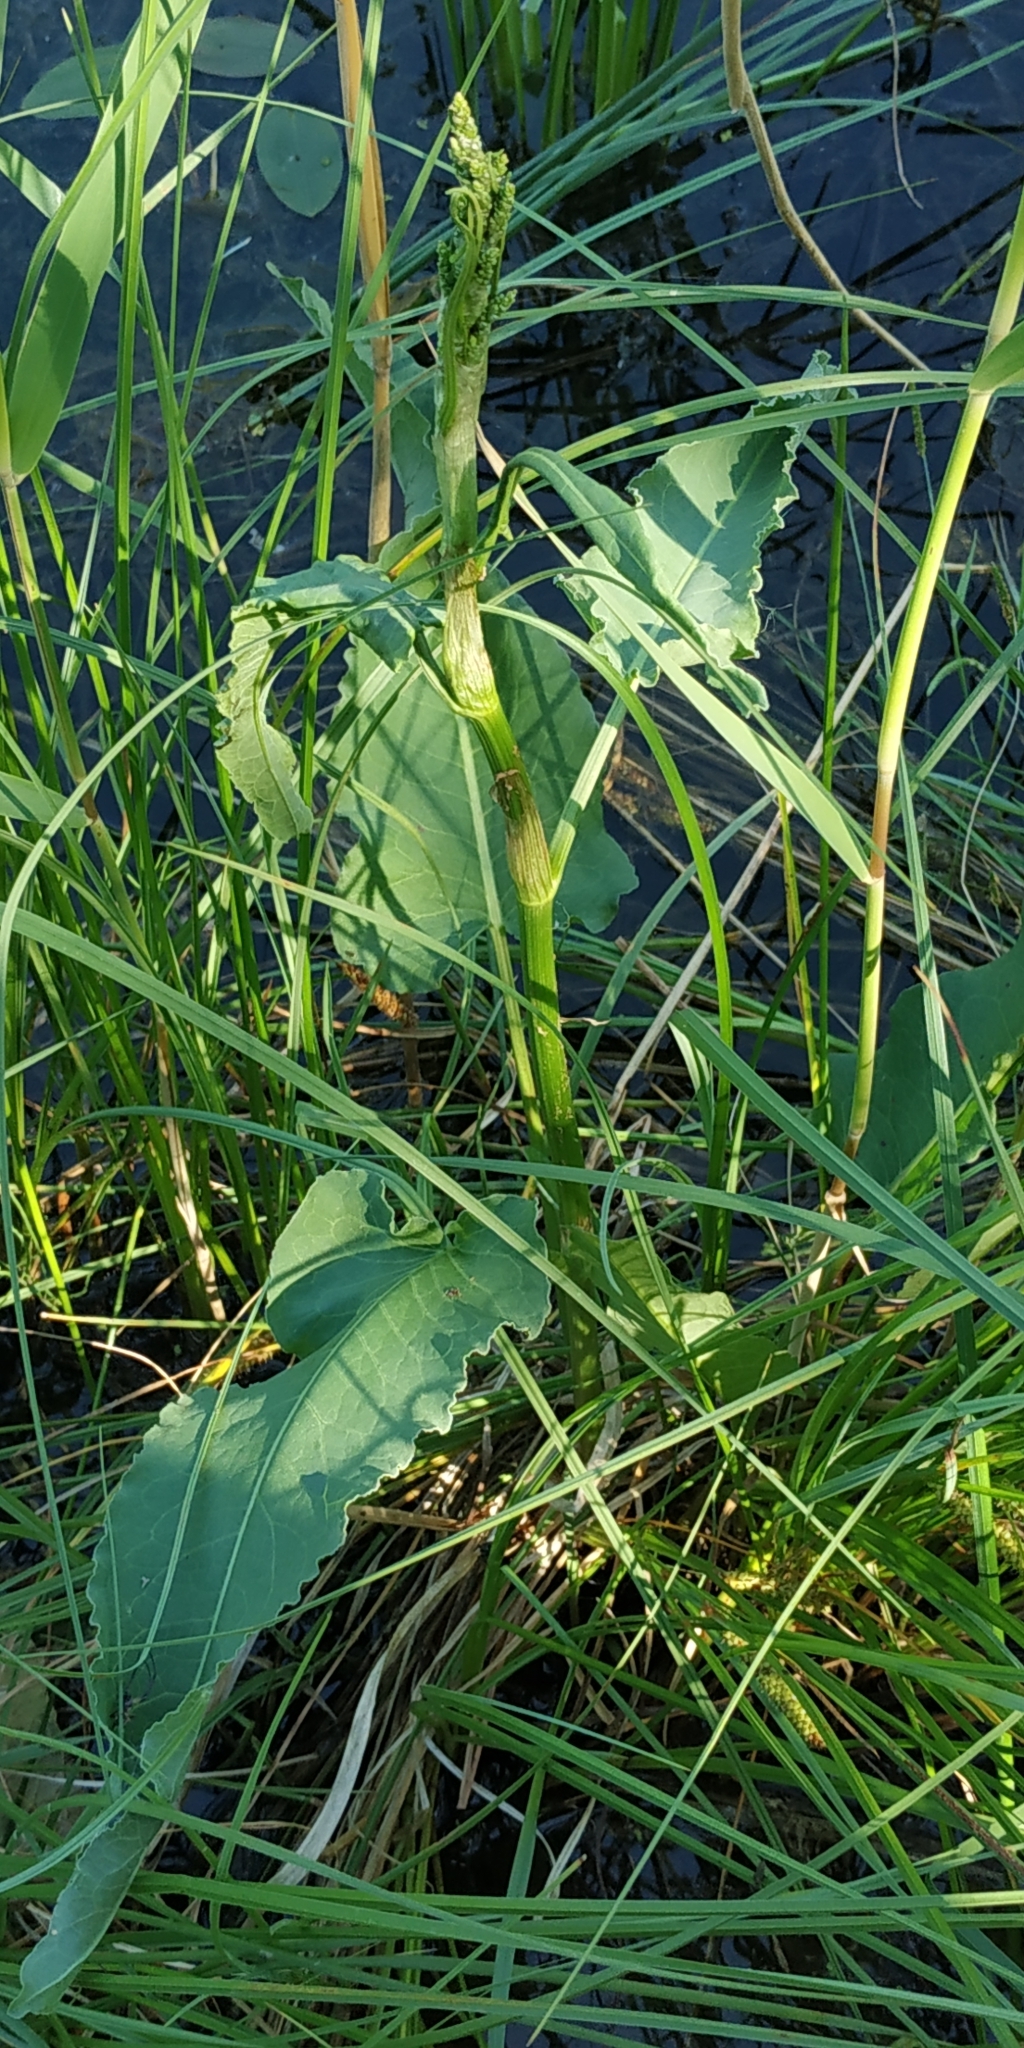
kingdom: Plantae
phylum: Tracheophyta
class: Magnoliopsida
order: Caryophyllales
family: Polygonaceae
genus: Rumex
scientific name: Rumex aquaticus
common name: Scottish dock
